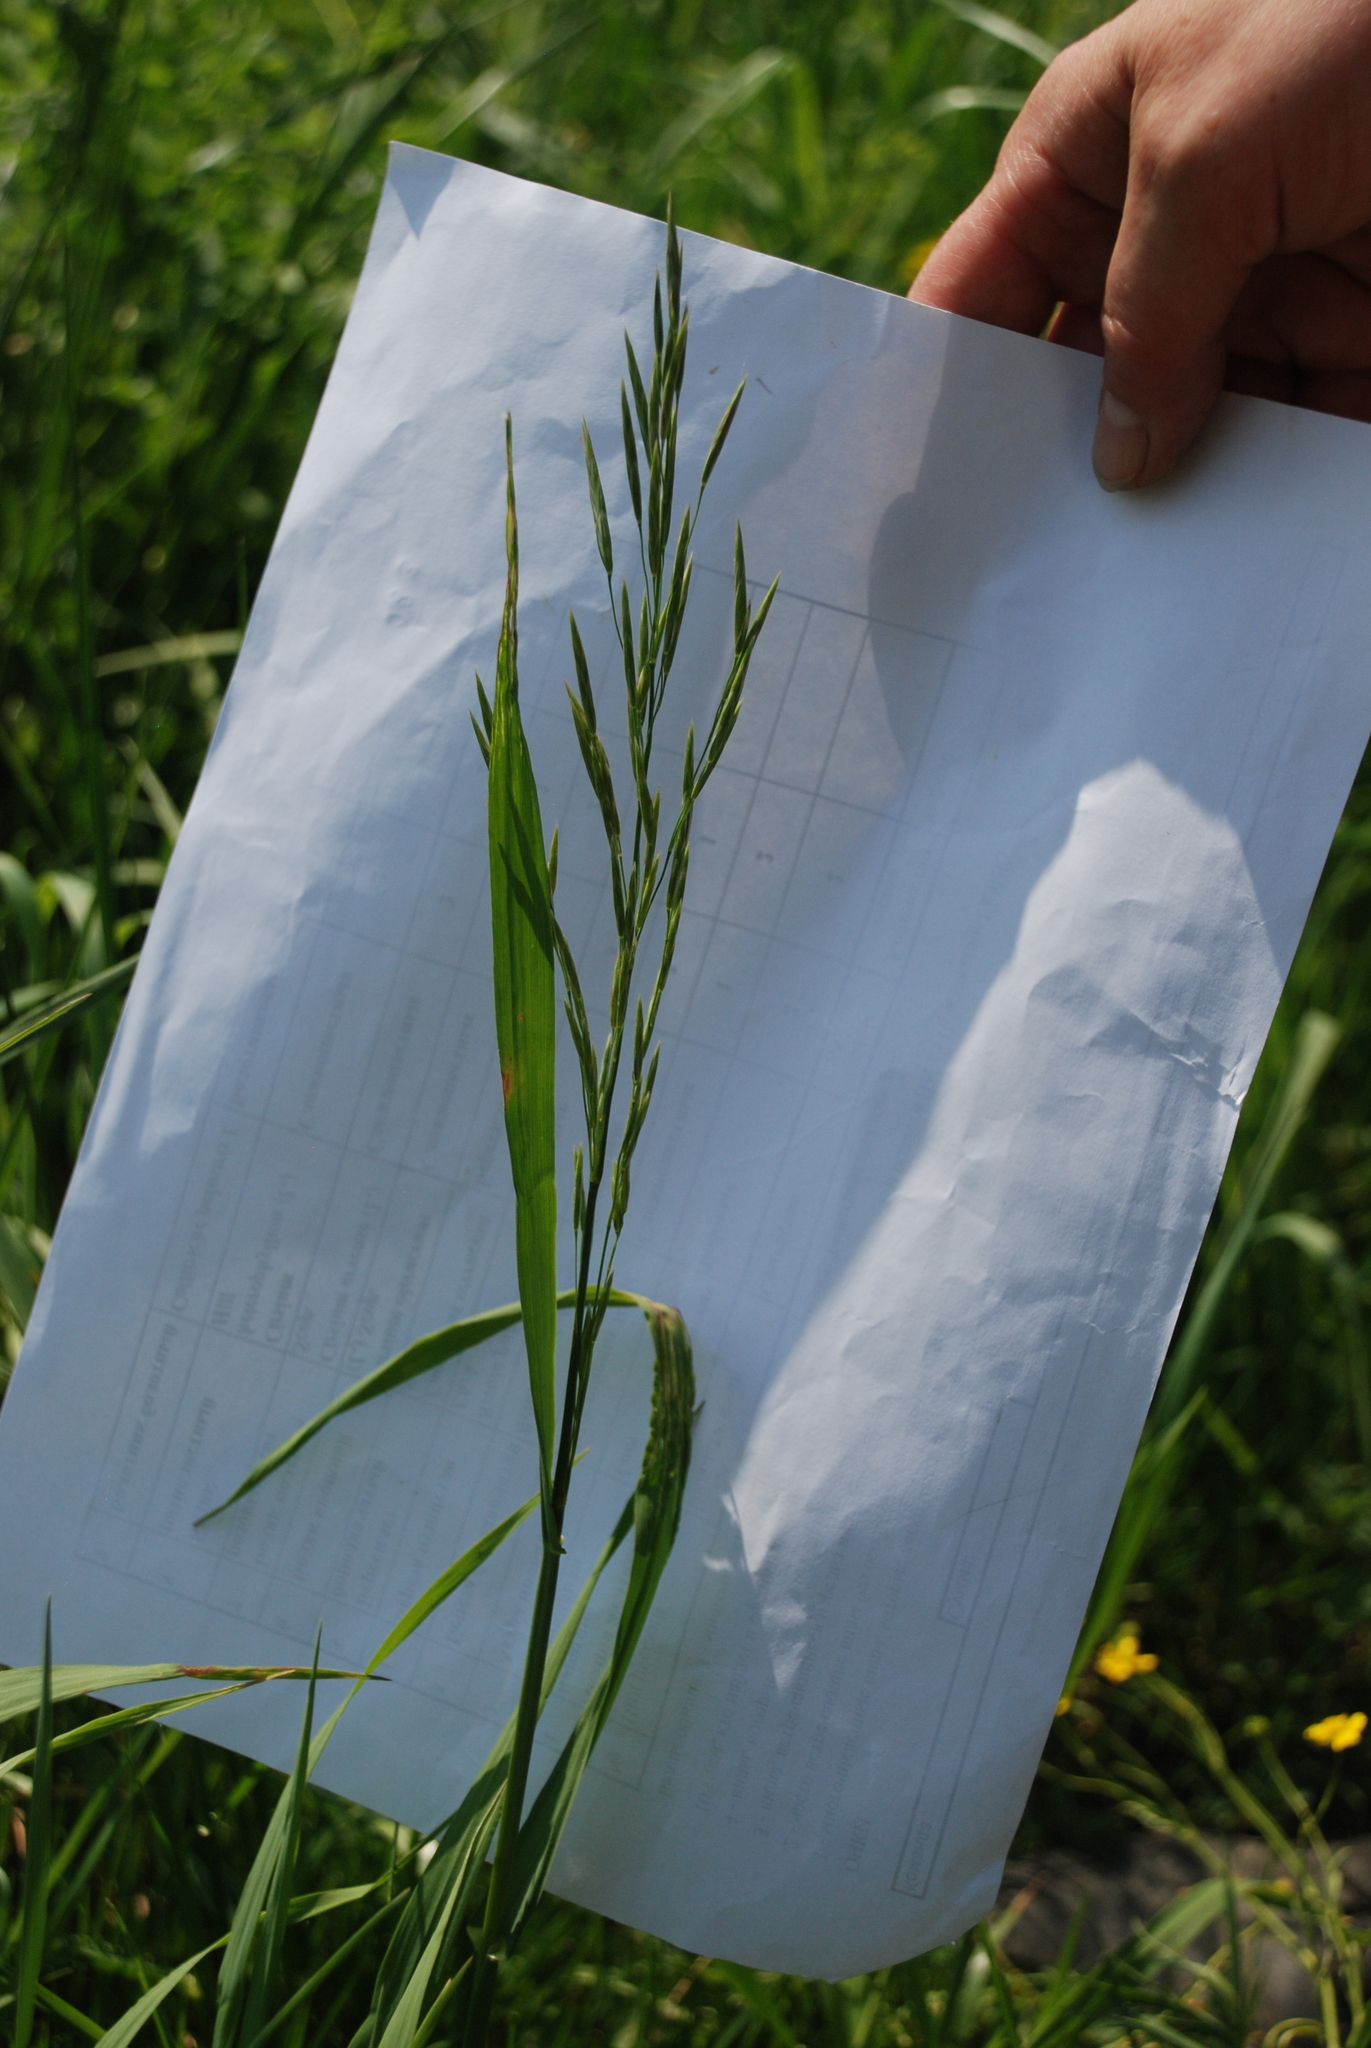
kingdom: Plantae
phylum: Tracheophyta
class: Liliopsida
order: Poales
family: Poaceae
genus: Bromus
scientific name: Bromus inermis
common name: Smooth brome
